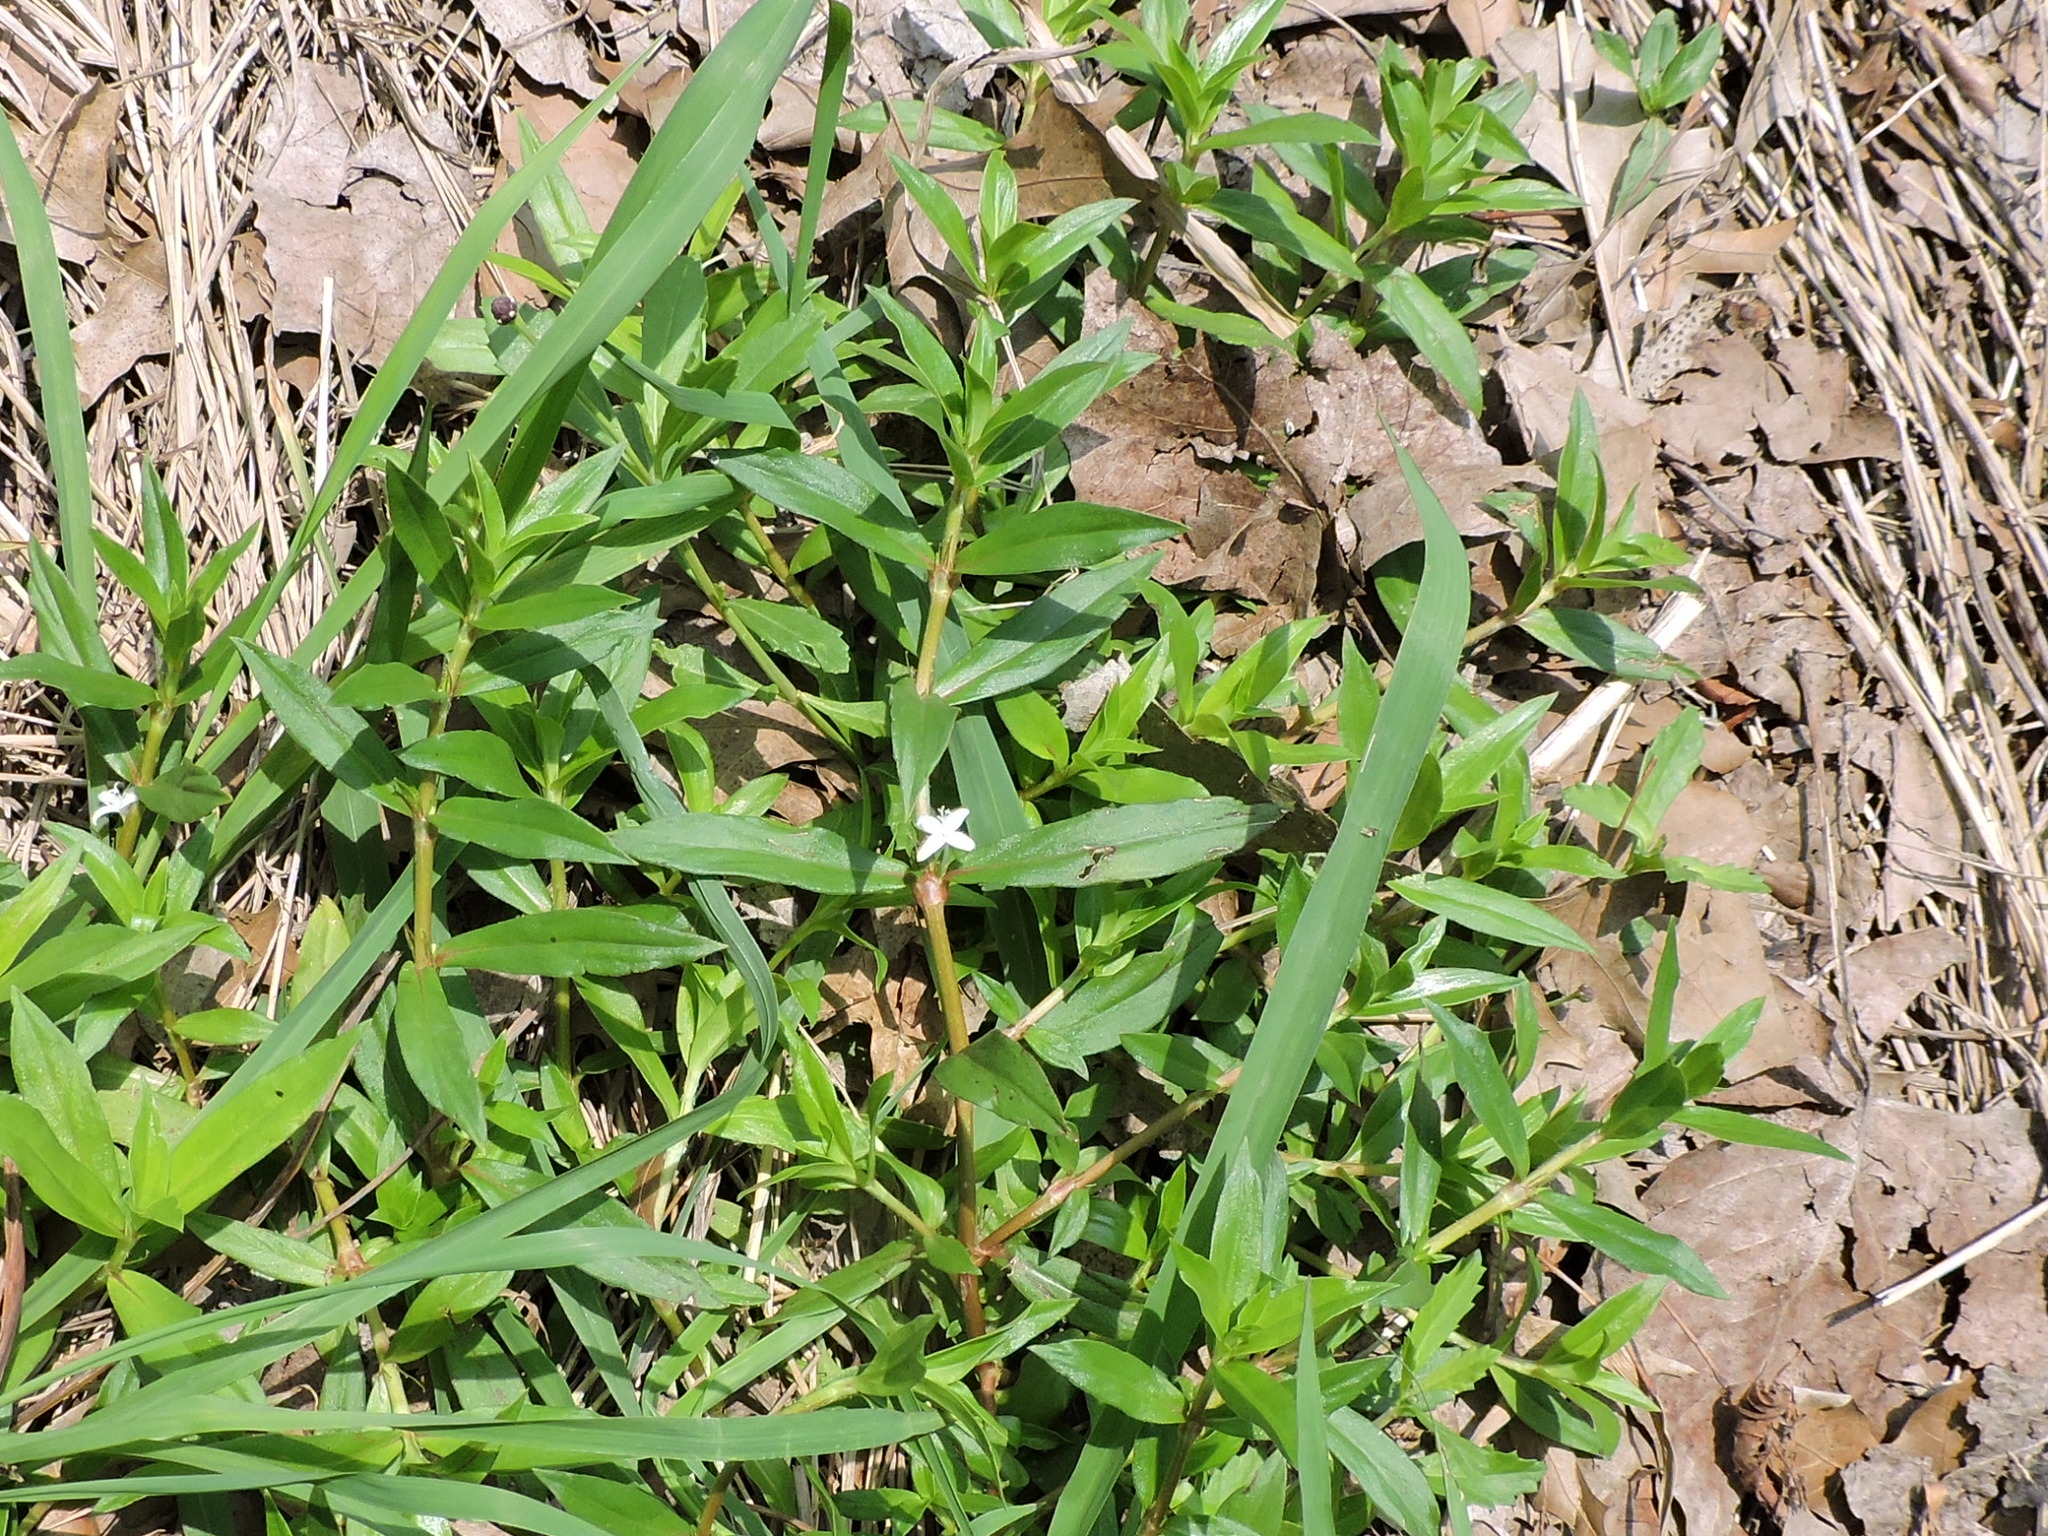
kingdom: Plantae
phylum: Tracheophyta
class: Magnoliopsida
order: Gentianales
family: Rubiaceae
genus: Diodia
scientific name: Diodia virginiana
